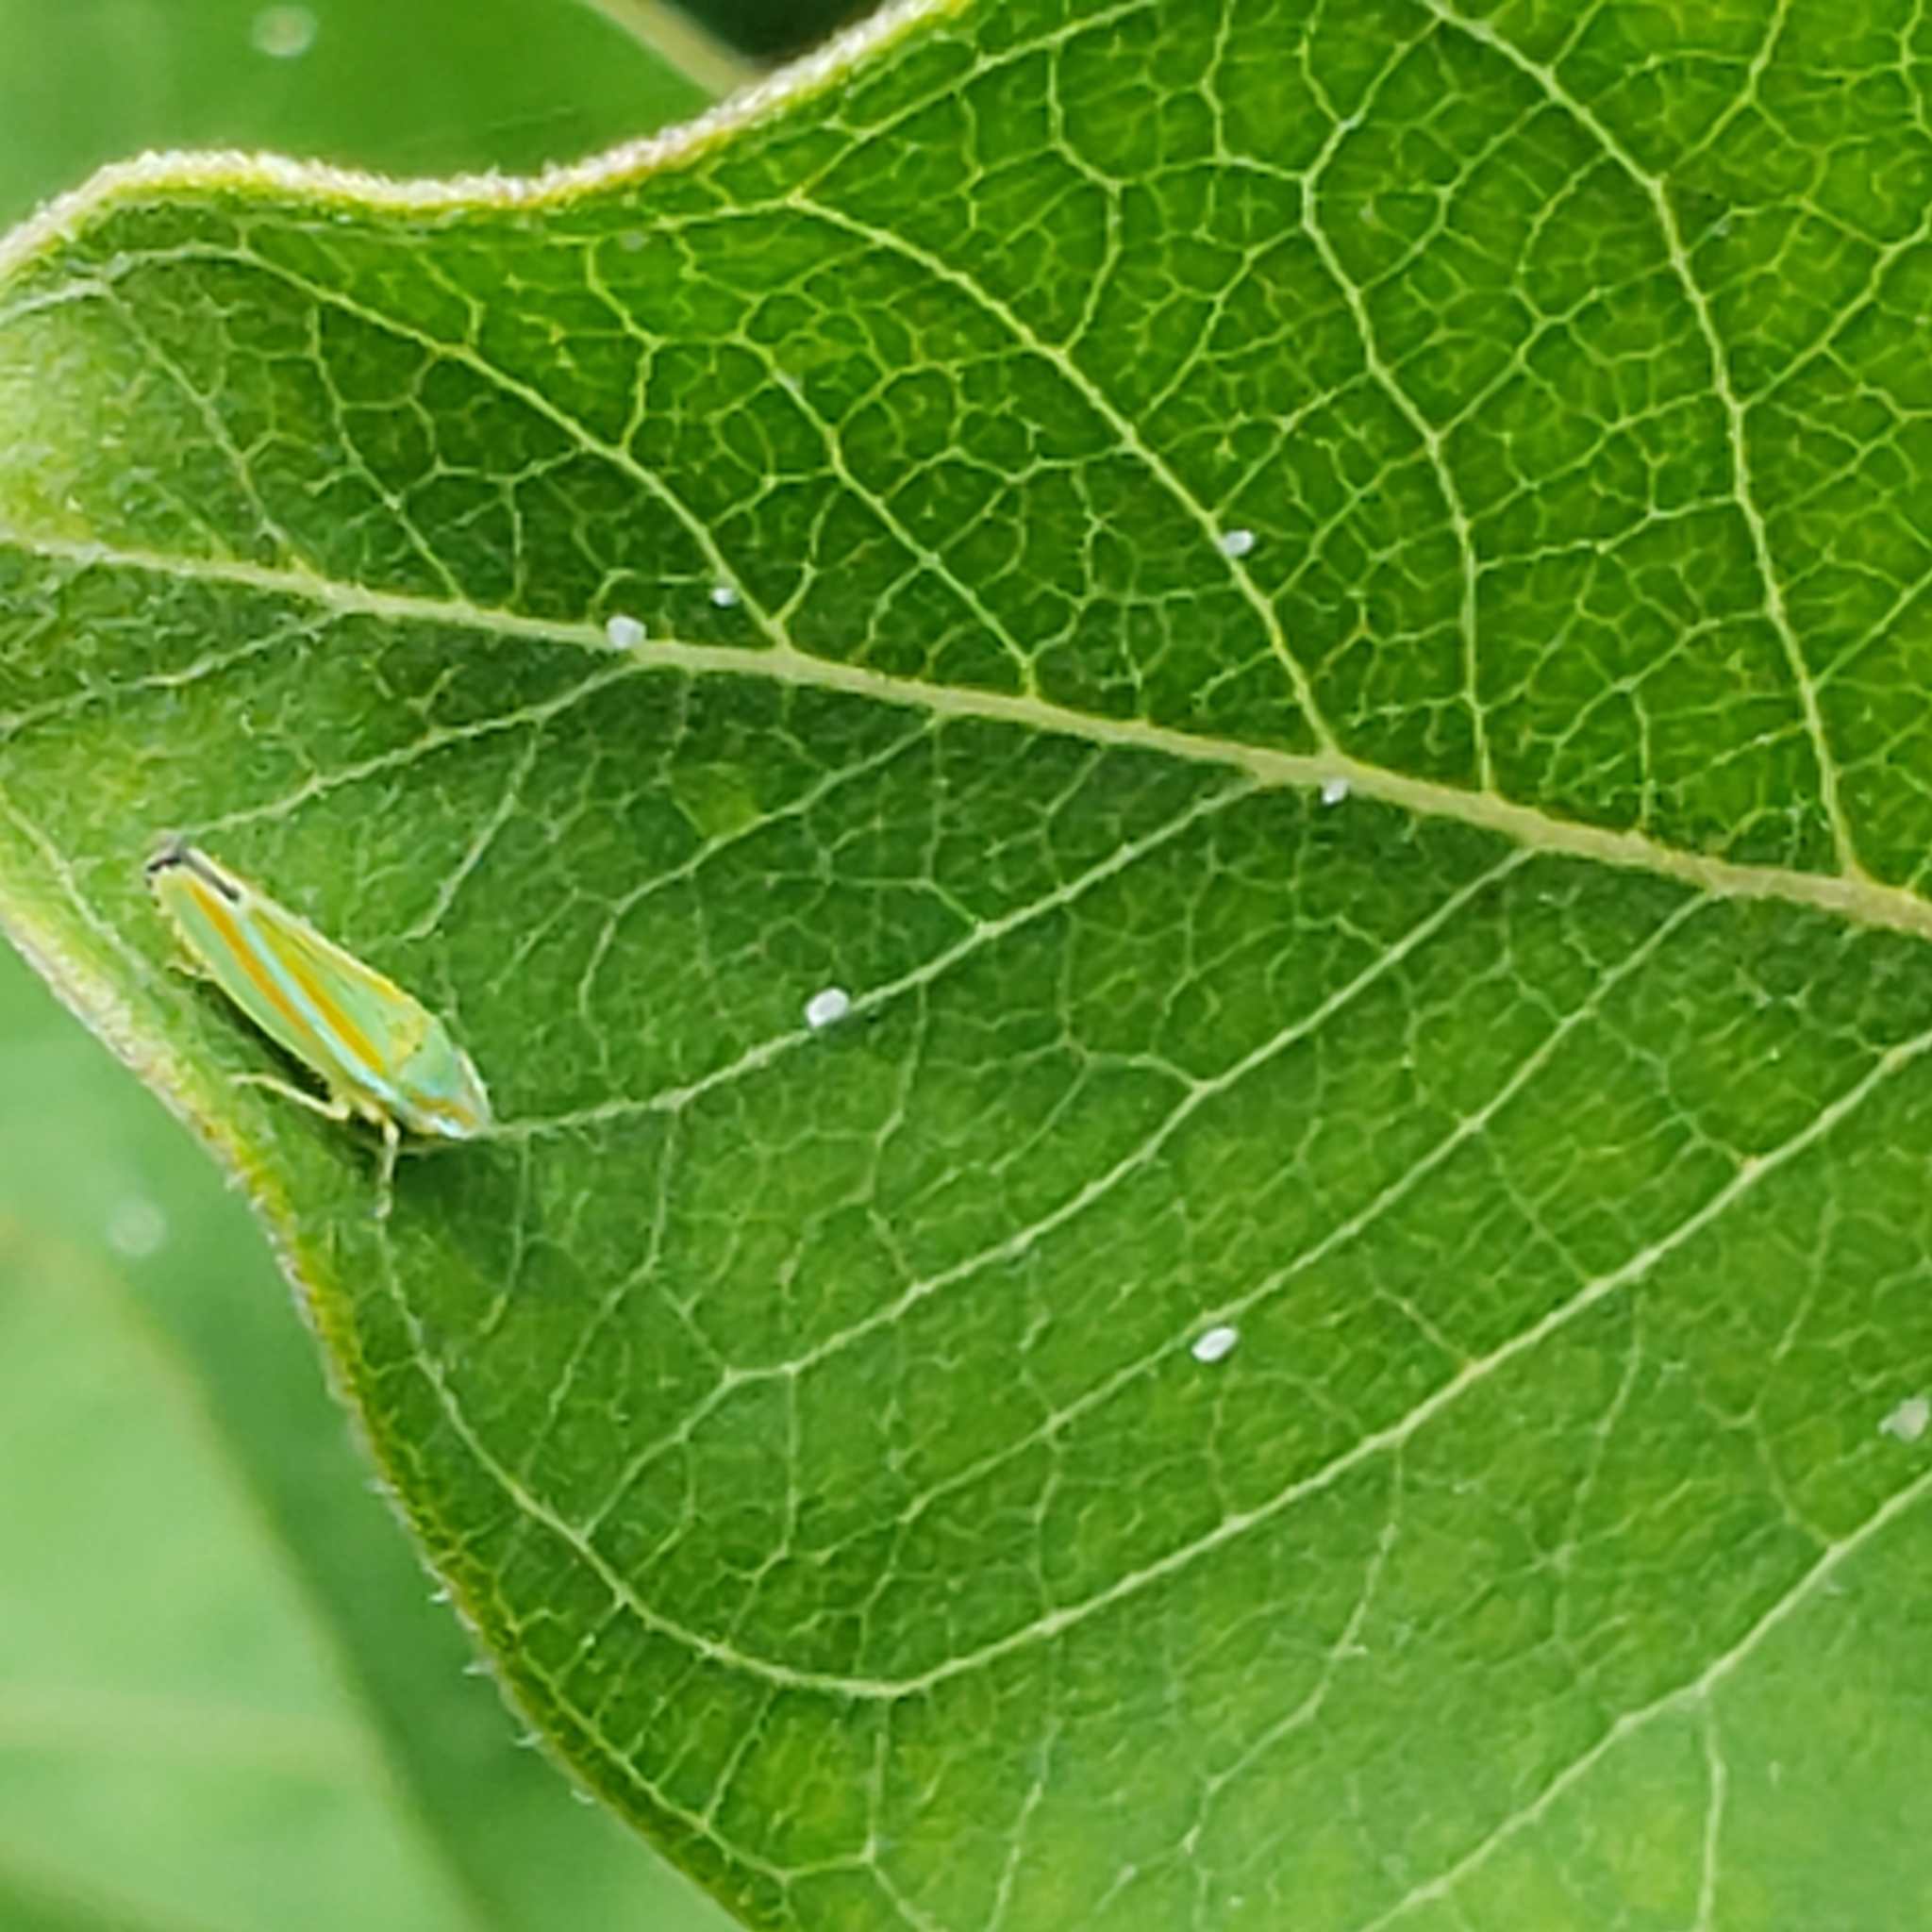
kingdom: Animalia
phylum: Arthropoda
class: Insecta
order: Hemiptera
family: Cicadellidae
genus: Graphocephala
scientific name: Graphocephala versuta
